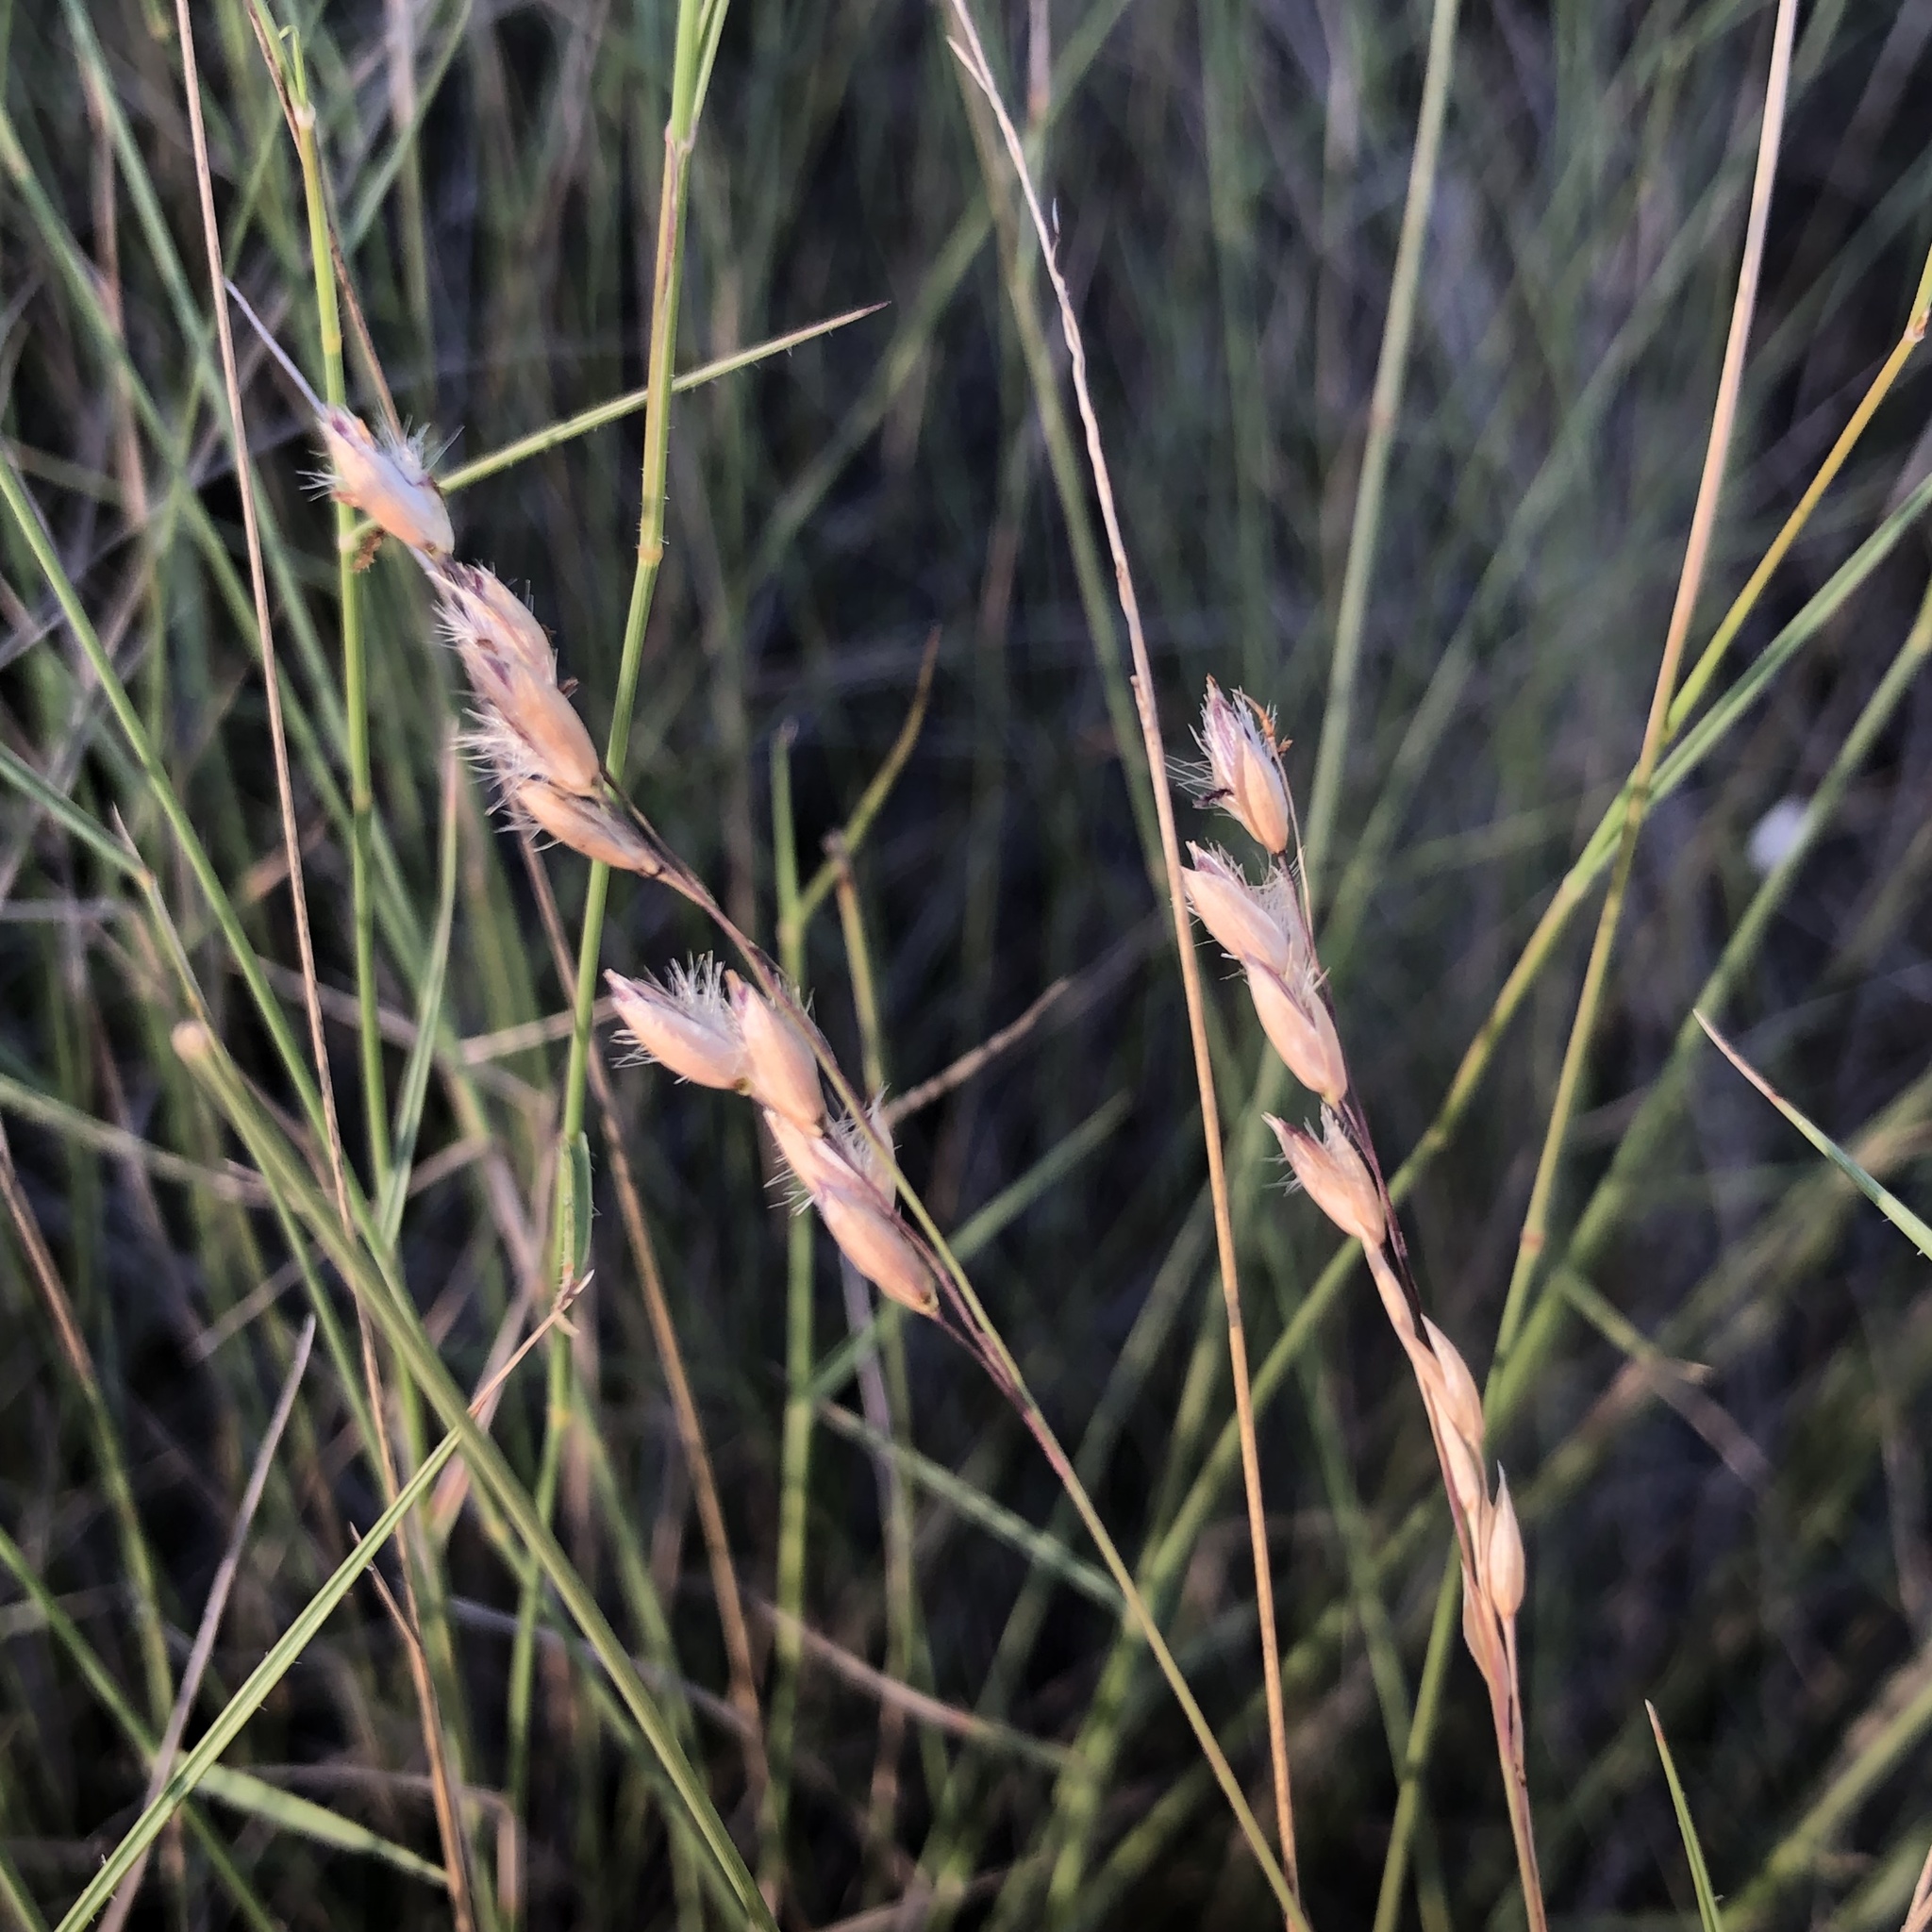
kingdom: Plantae
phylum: Tracheophyta
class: Liliopsida
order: Poales
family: Poaceae
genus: Eriachne
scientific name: Eriachne mucronata
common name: Mountain wanderrie grass
